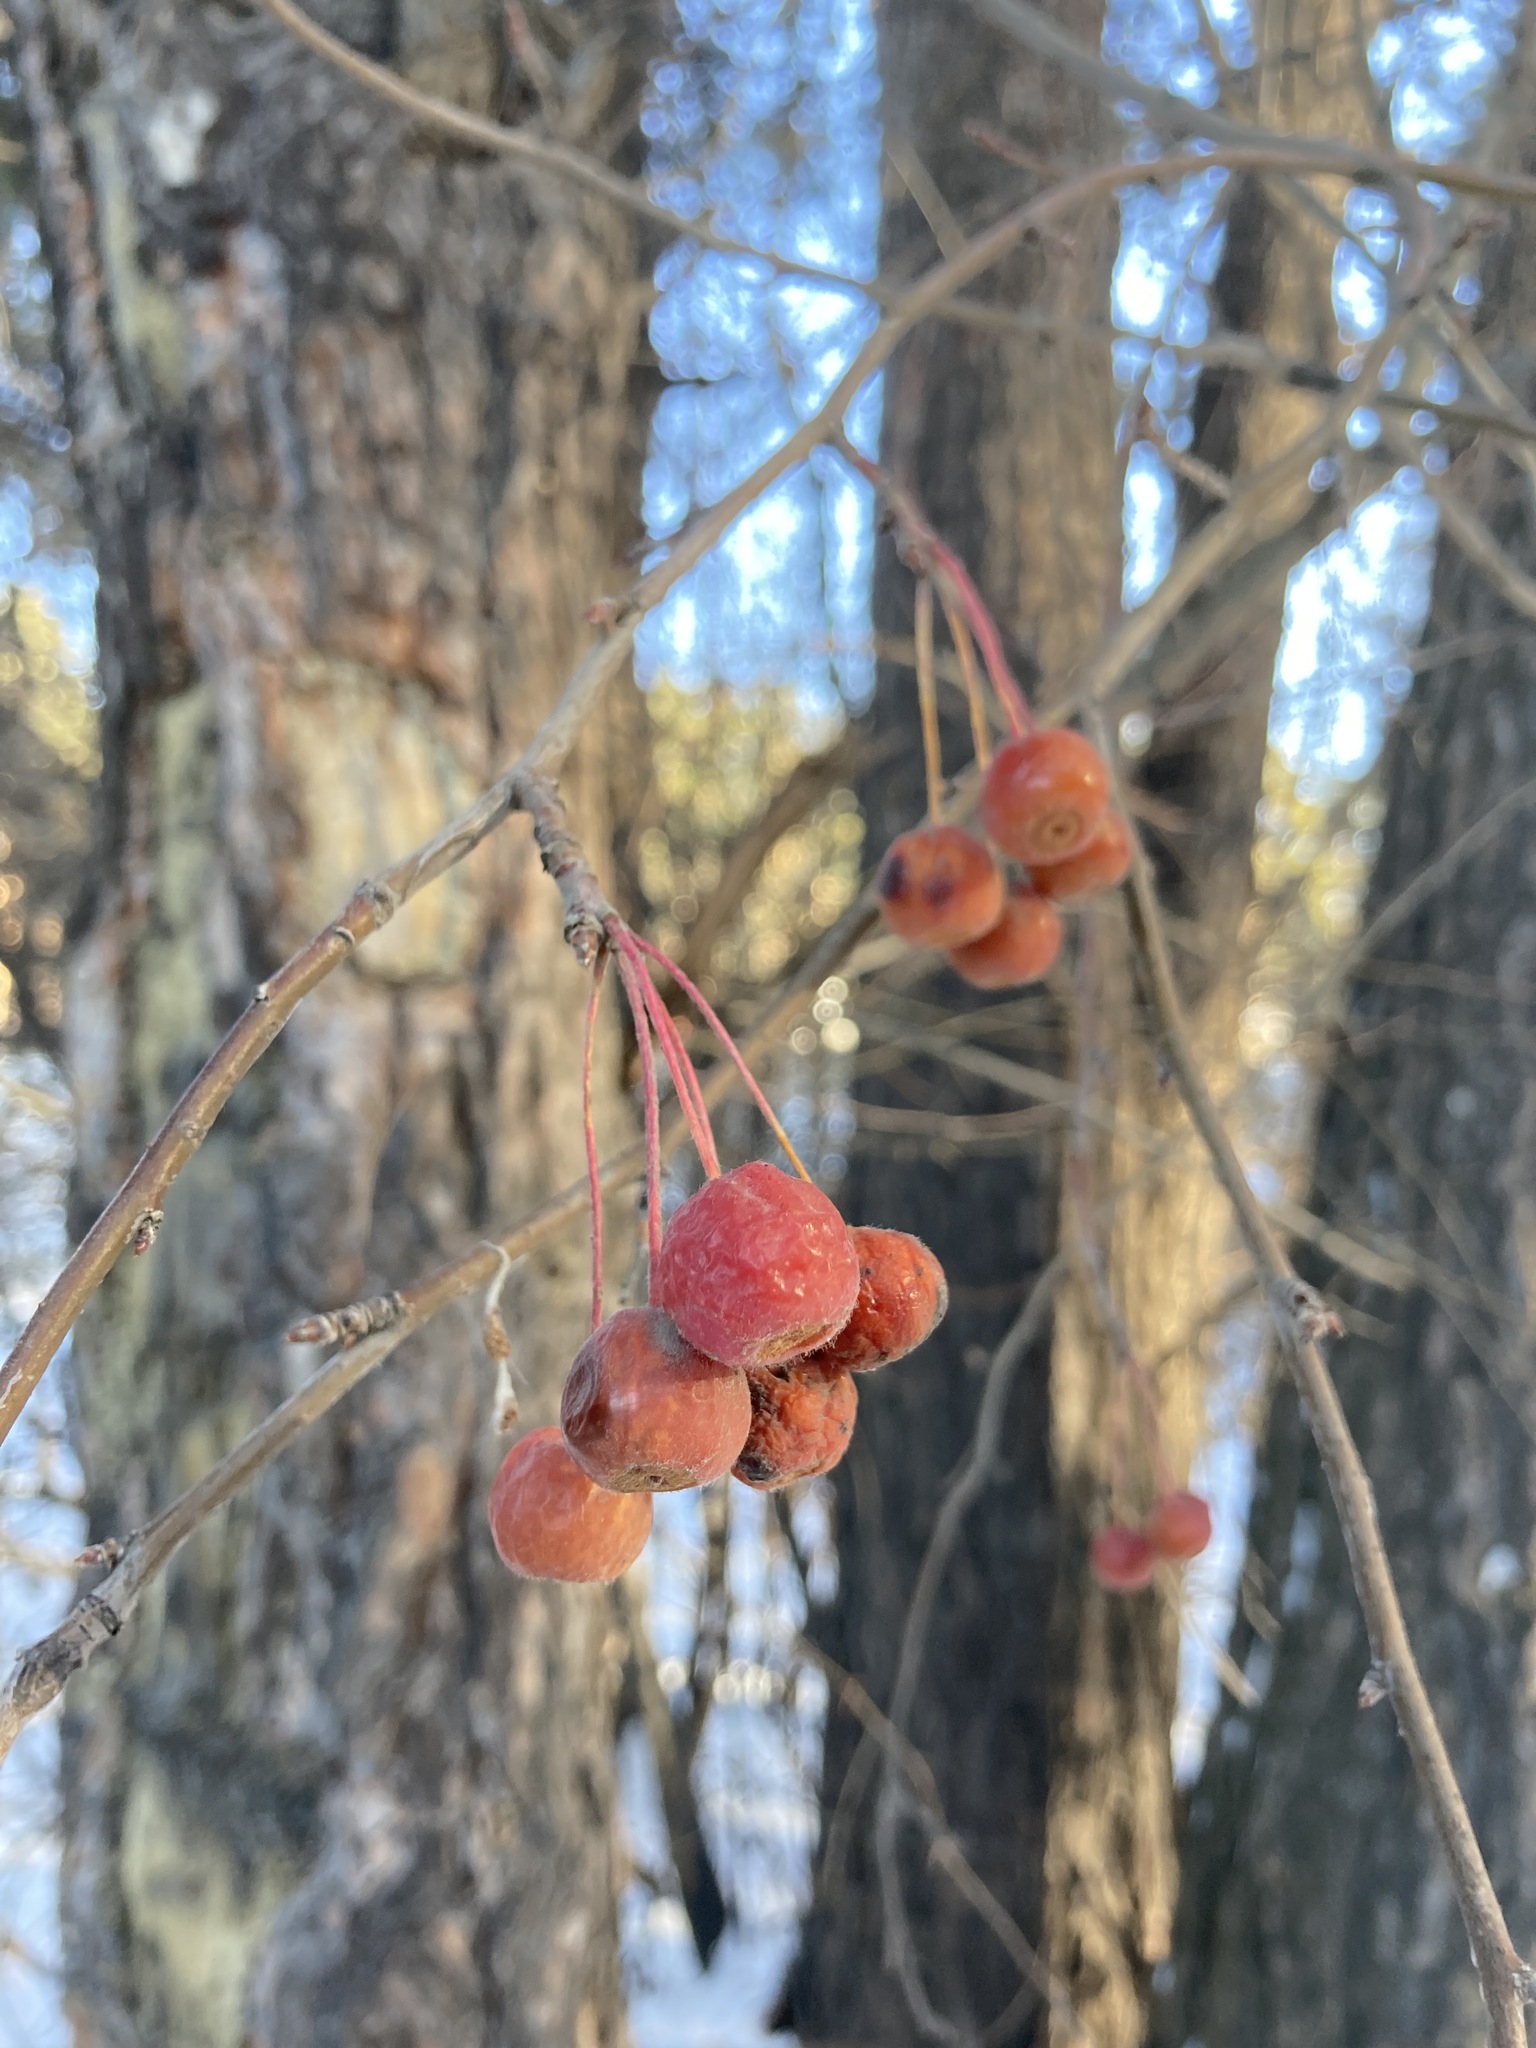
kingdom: Plantae
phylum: Tracheophyta
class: Magnoliopsida
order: Rosales
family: Rosaceae
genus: Malus
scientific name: Malus baccata
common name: Siberian crab
